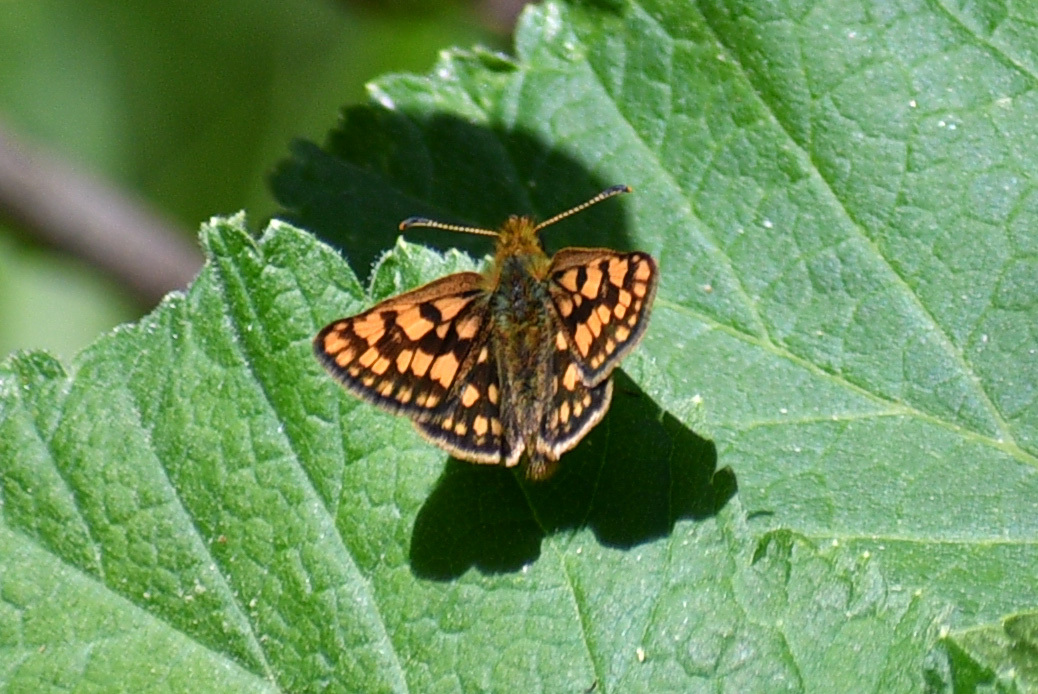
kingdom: Animalia
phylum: Arthropoda
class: Insecta
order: Lepidoptera
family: Hesperiidae
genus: Carterocephalus
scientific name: Carterocephalus skada
